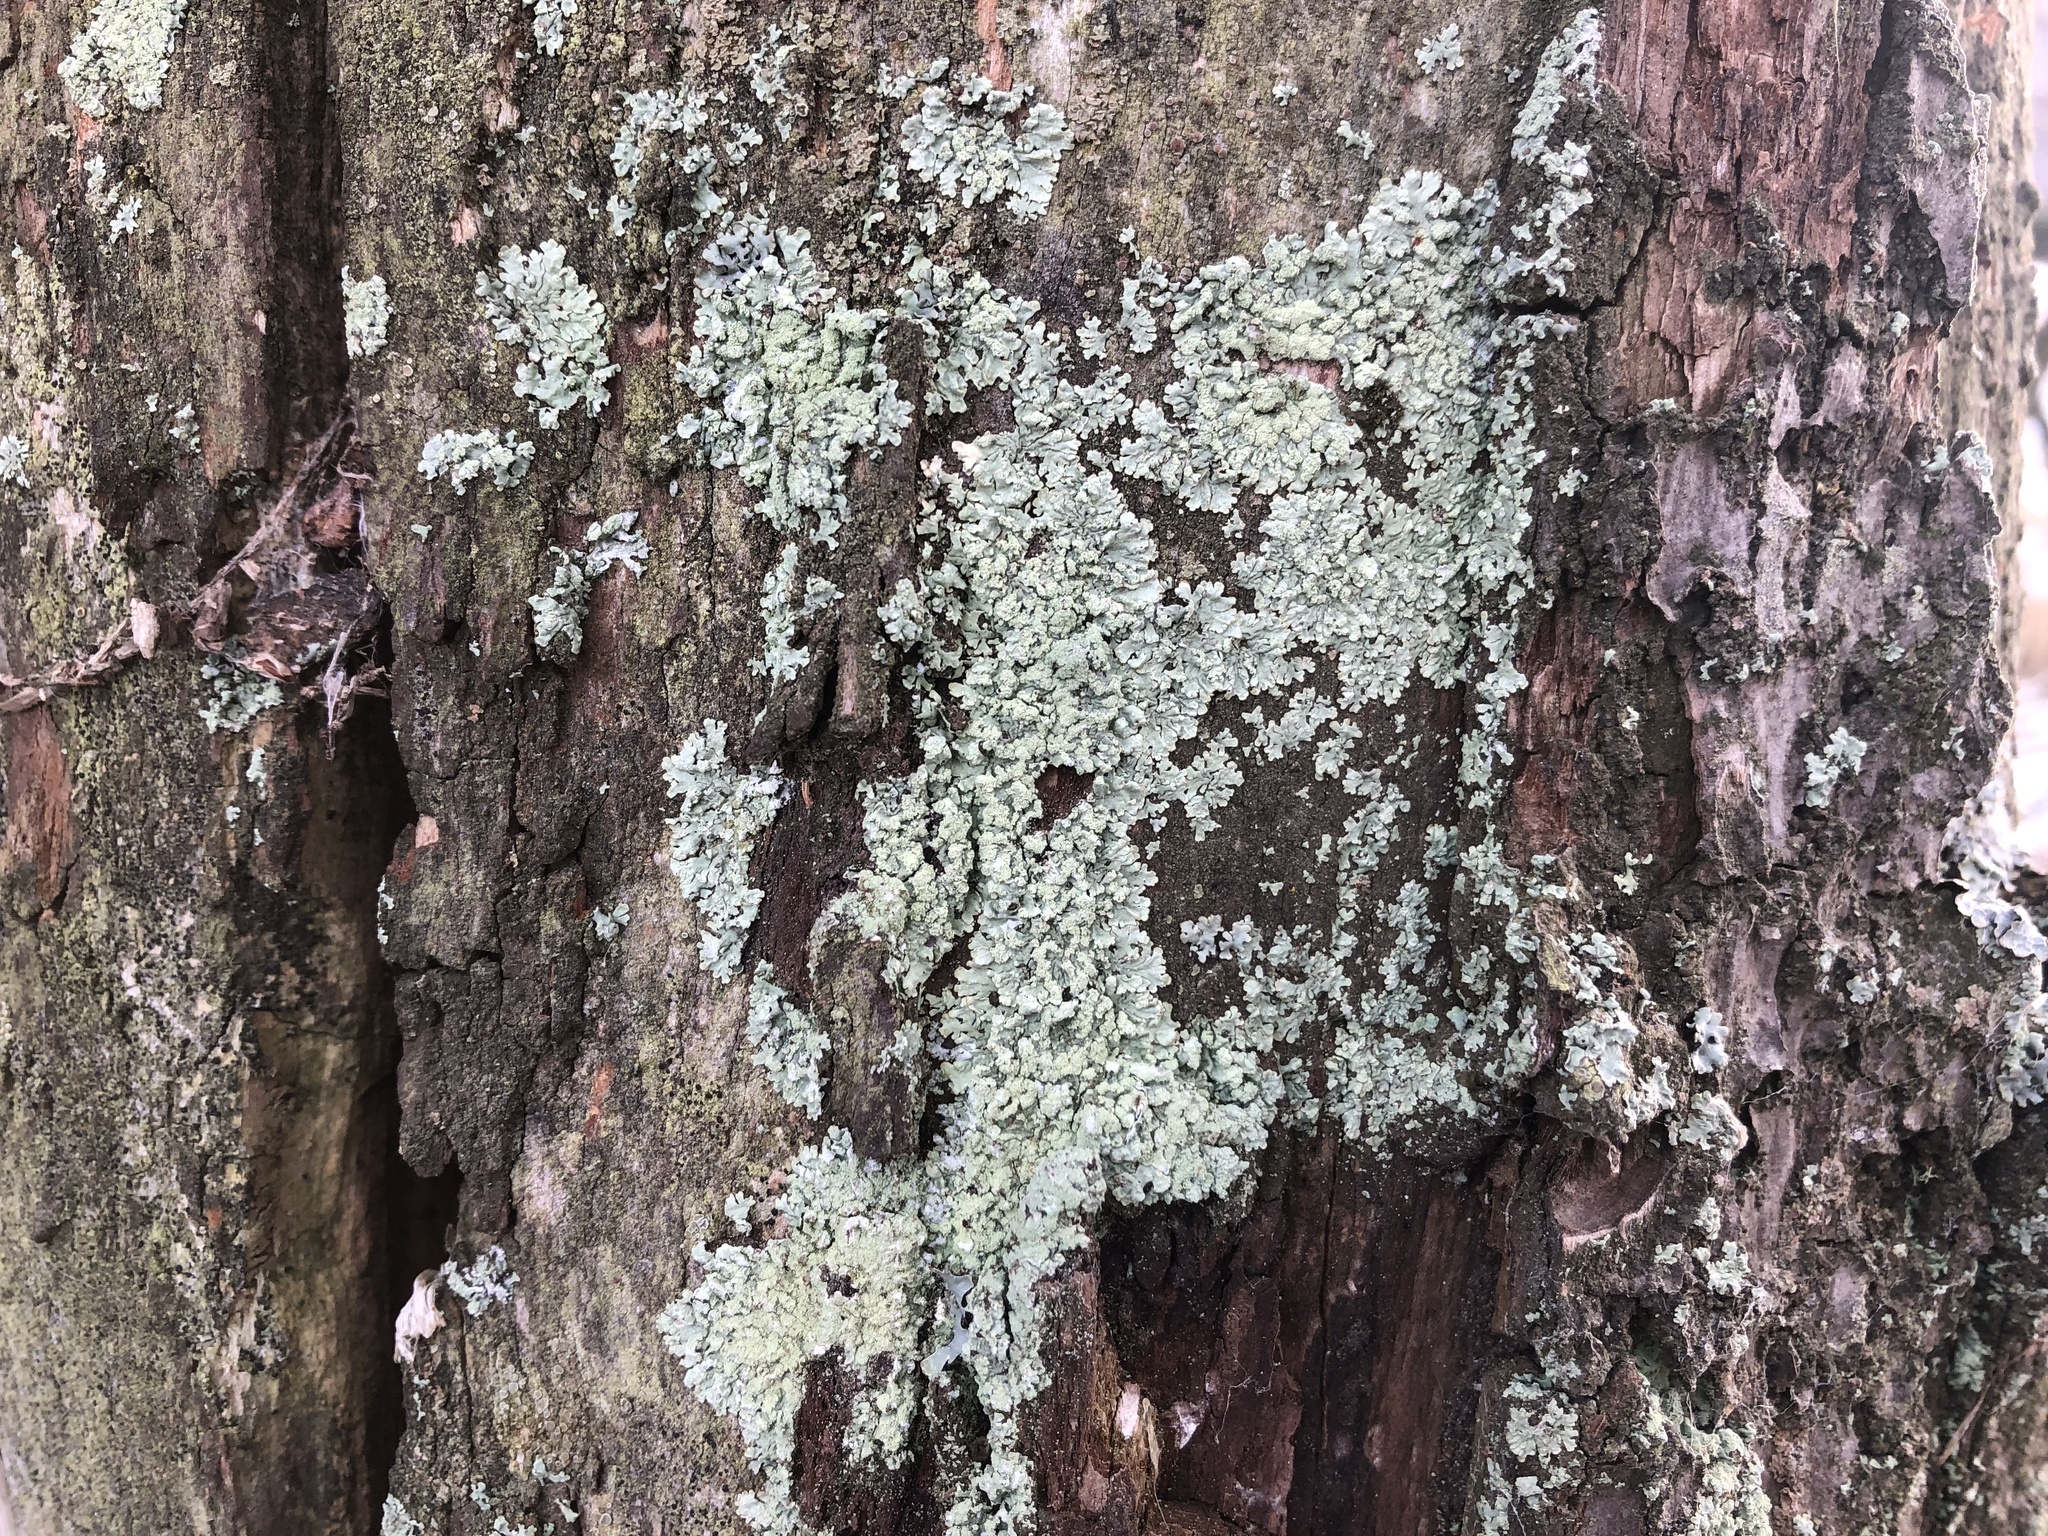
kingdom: Fungi
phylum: Ascomycota
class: Lecanoromycetes
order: Lecanorales
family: Parmeliaceae
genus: Flavoparmelia
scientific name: Flavoparmelia caperata
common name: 40-mile per hour lichen
